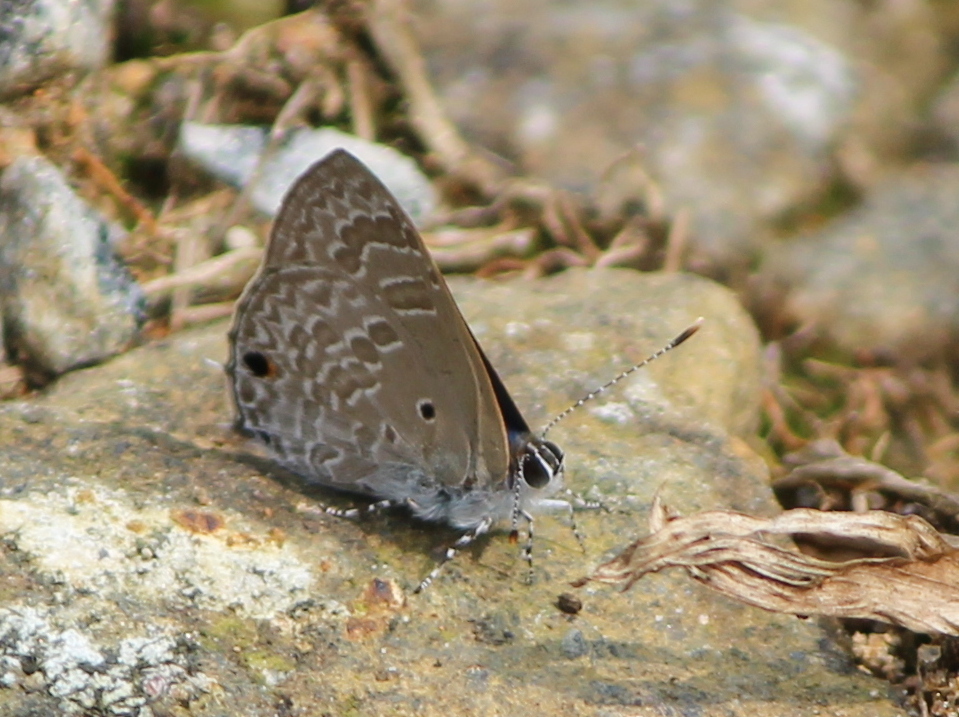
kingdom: Animalia
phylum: Arthropoda
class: Insecta
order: Lepidoptera
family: Lycaenidae
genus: Anthene
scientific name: Anthene lycaenina
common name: Pointed ciliate blue
